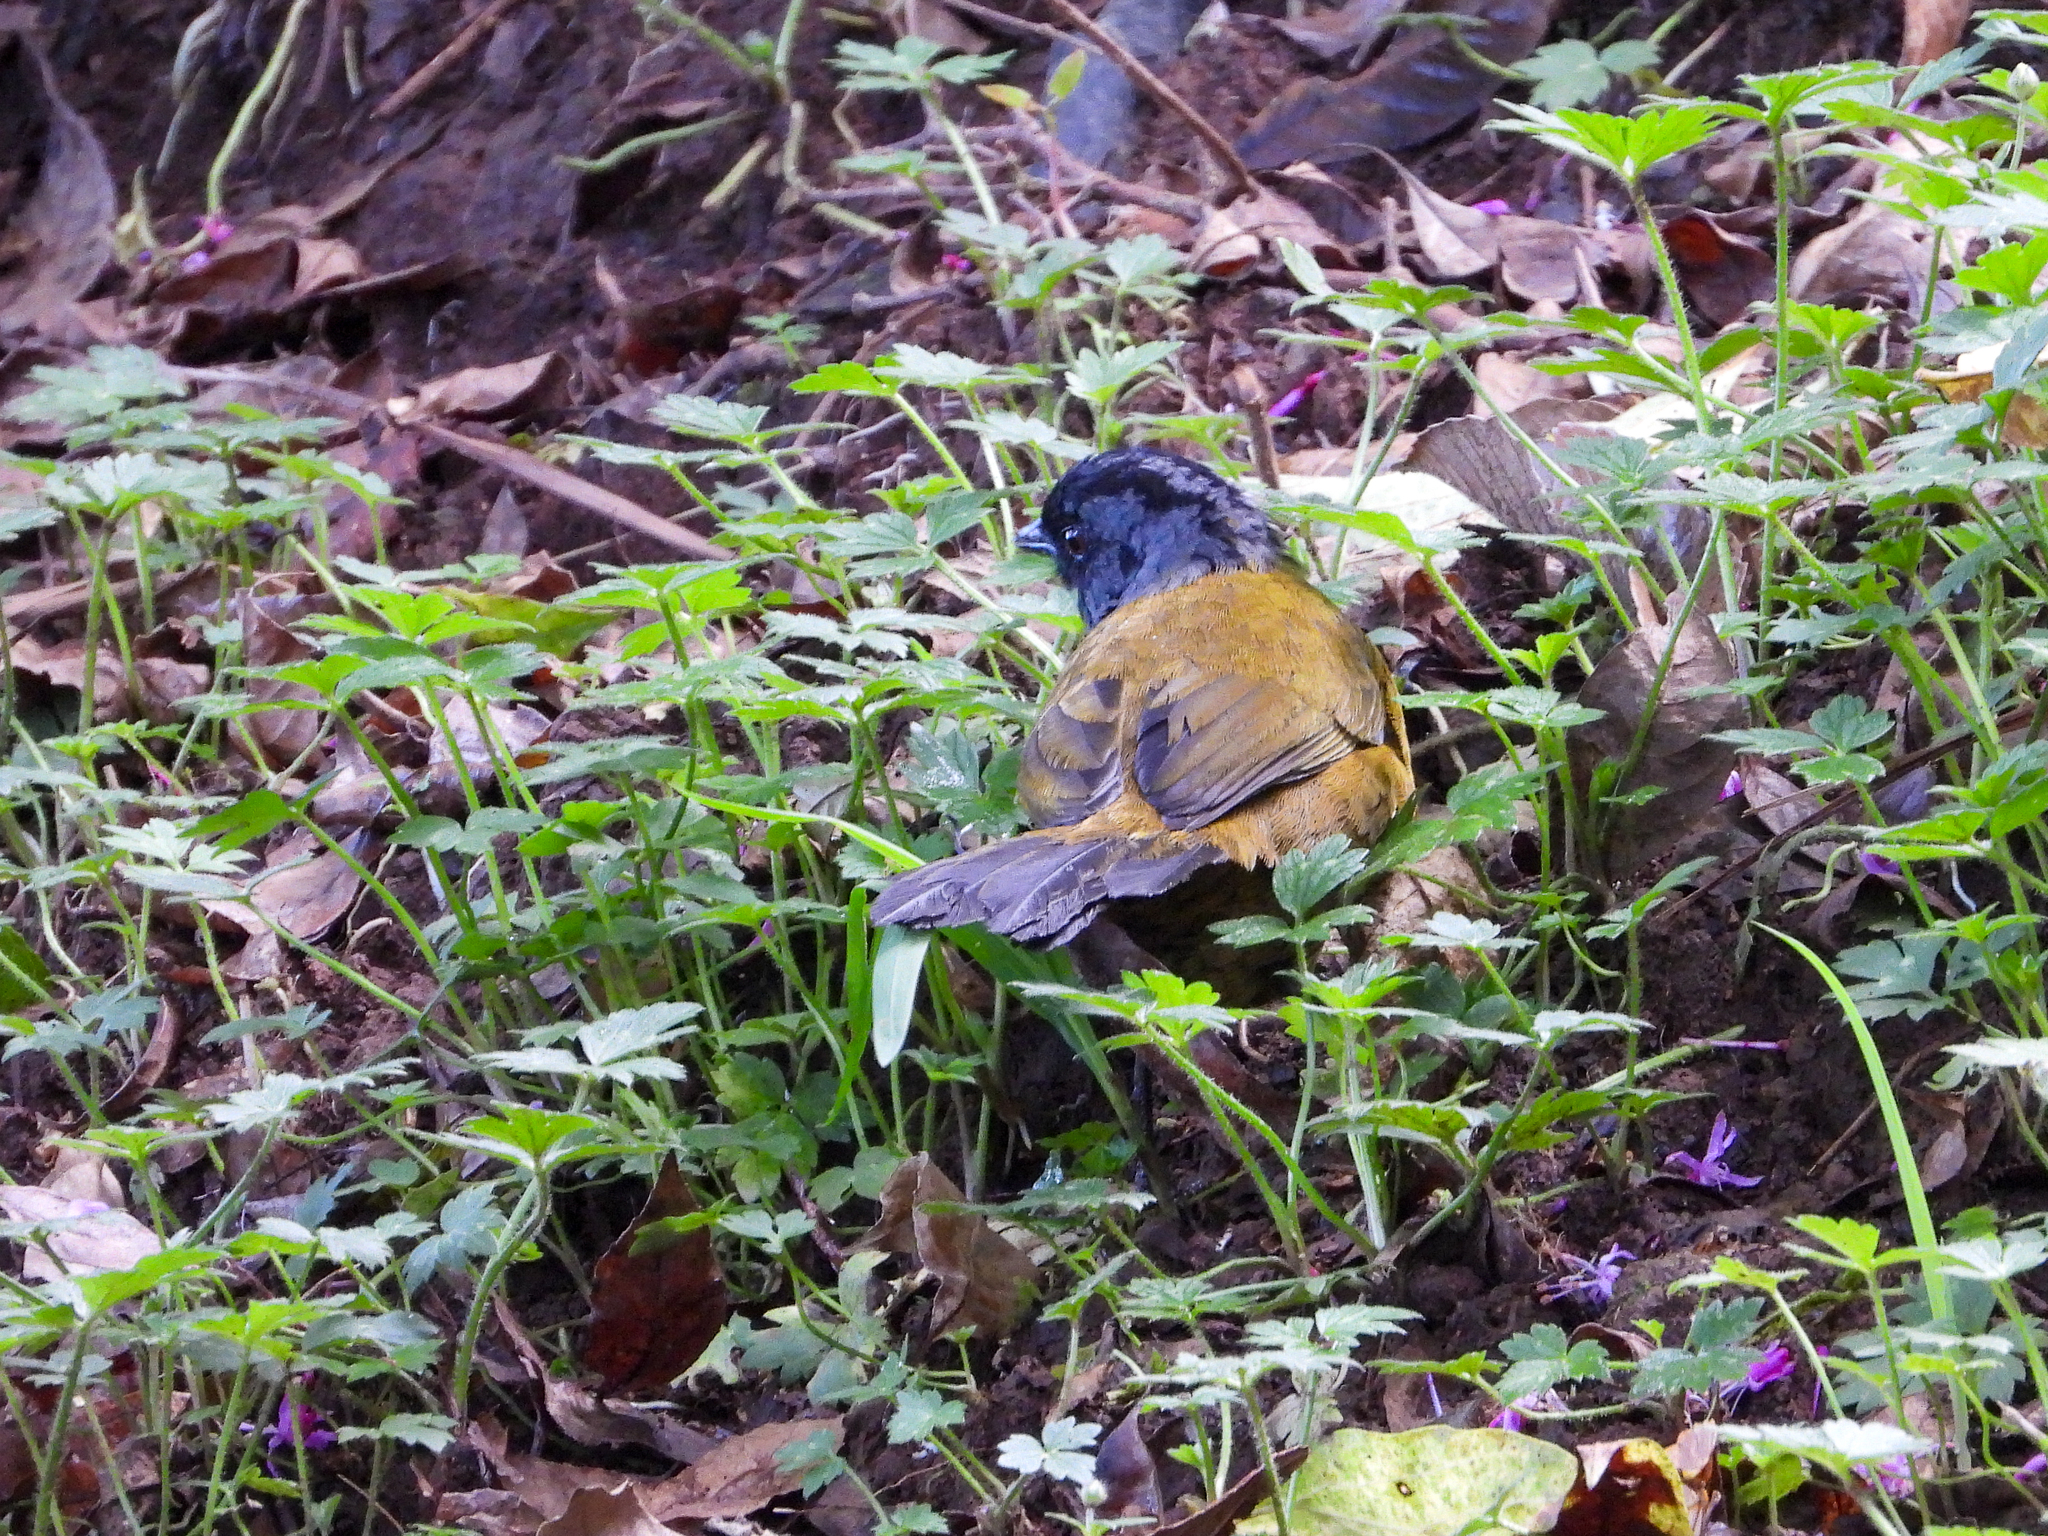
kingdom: Animalia
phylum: Chordata
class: Aves
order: Passeriformes
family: Passerellidae
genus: Pezopetes
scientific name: Pezopetes capitalis
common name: Large-footed finch
